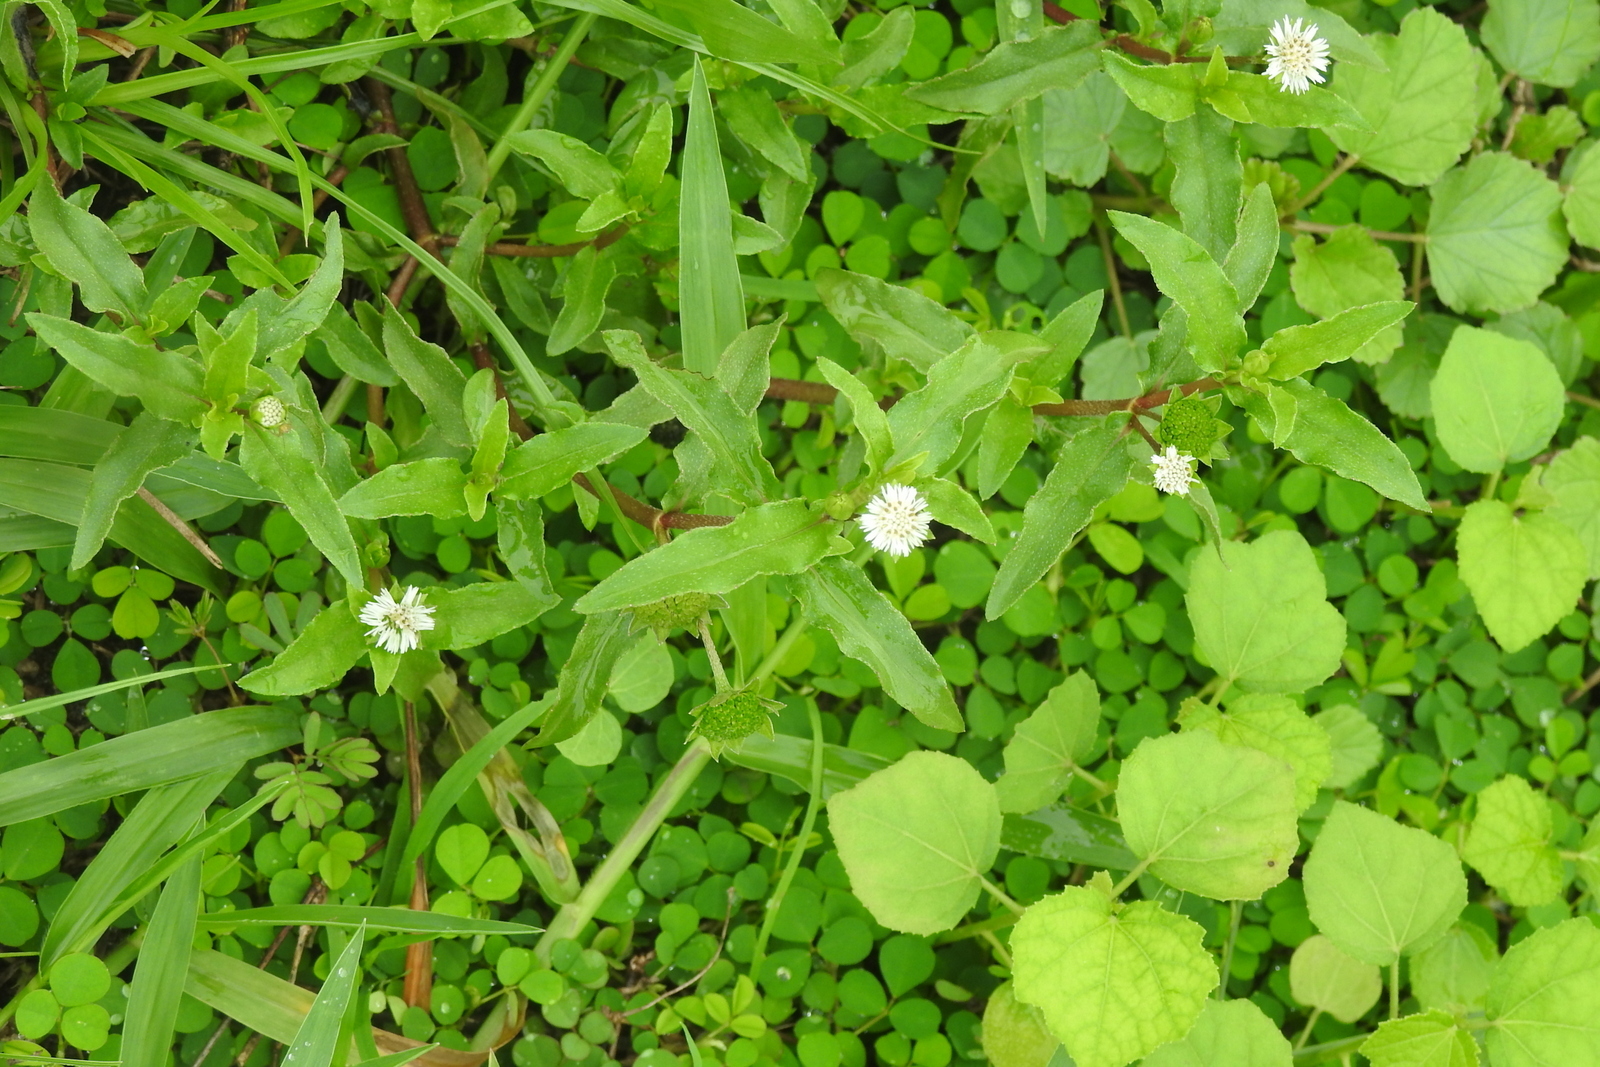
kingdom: Plantae
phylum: Tracheophyta
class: Magnoliopsida
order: Asterales
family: Asteraceae
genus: Eclipta
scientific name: Eclipta prostrata
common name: False daisy
